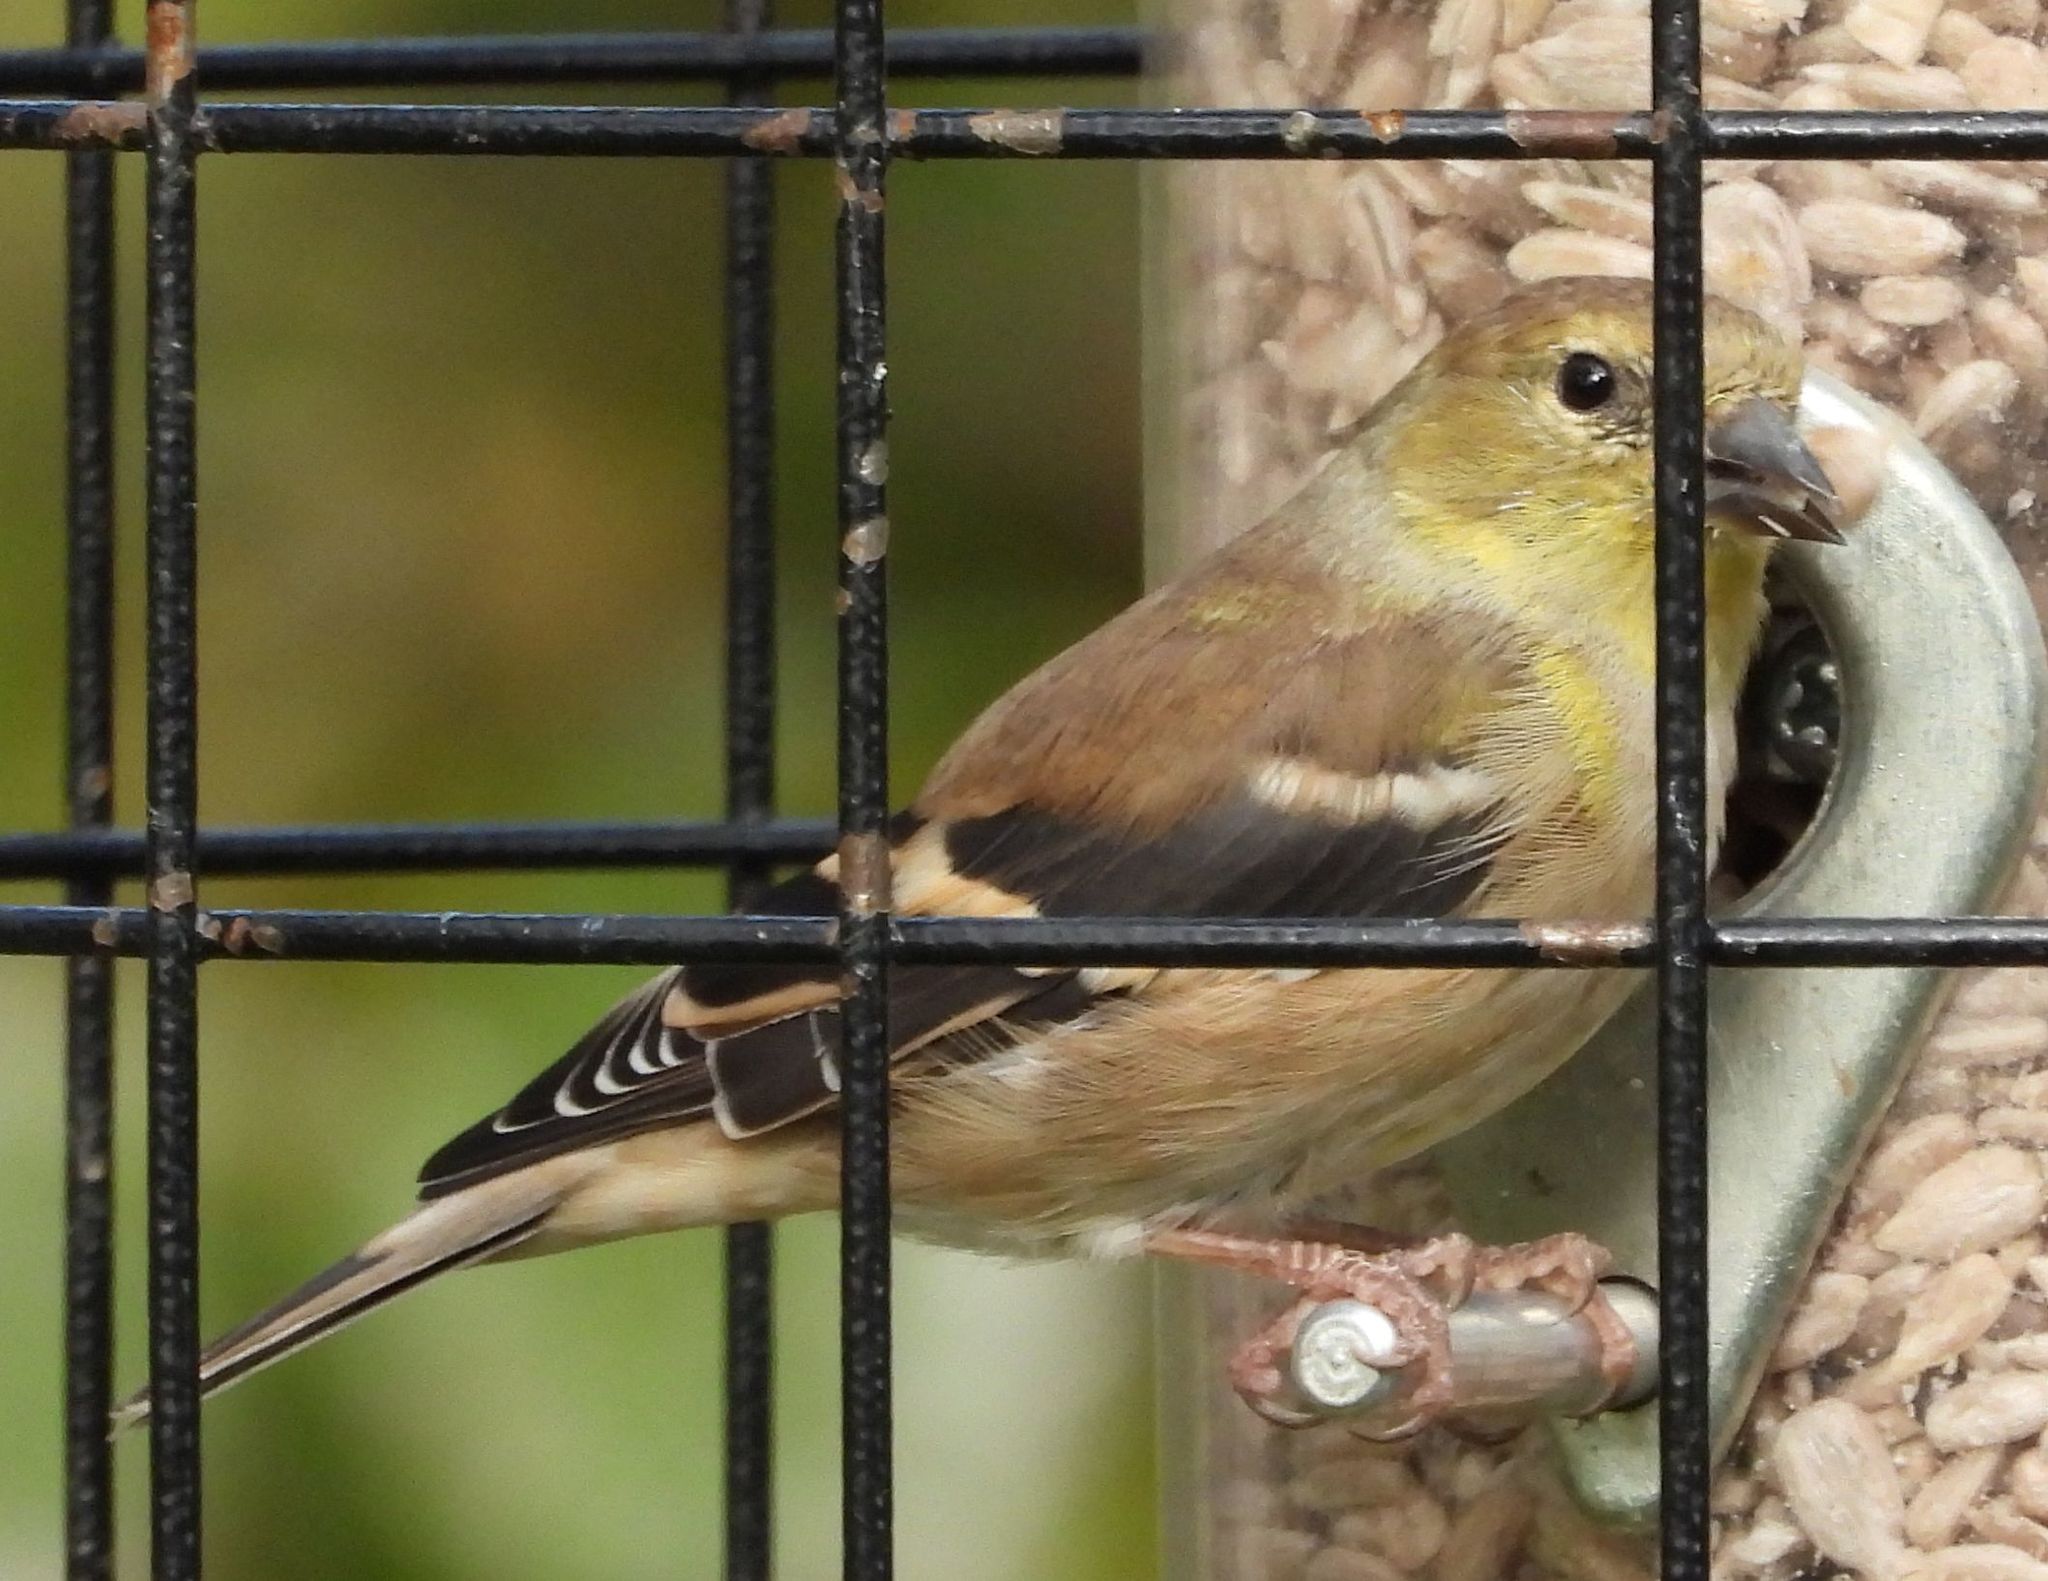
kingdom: Animalia
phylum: Chordata
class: Aves
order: Passeriformes
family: Fringillidae
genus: Spinus
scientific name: Spinus tristis
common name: American goldfinch
